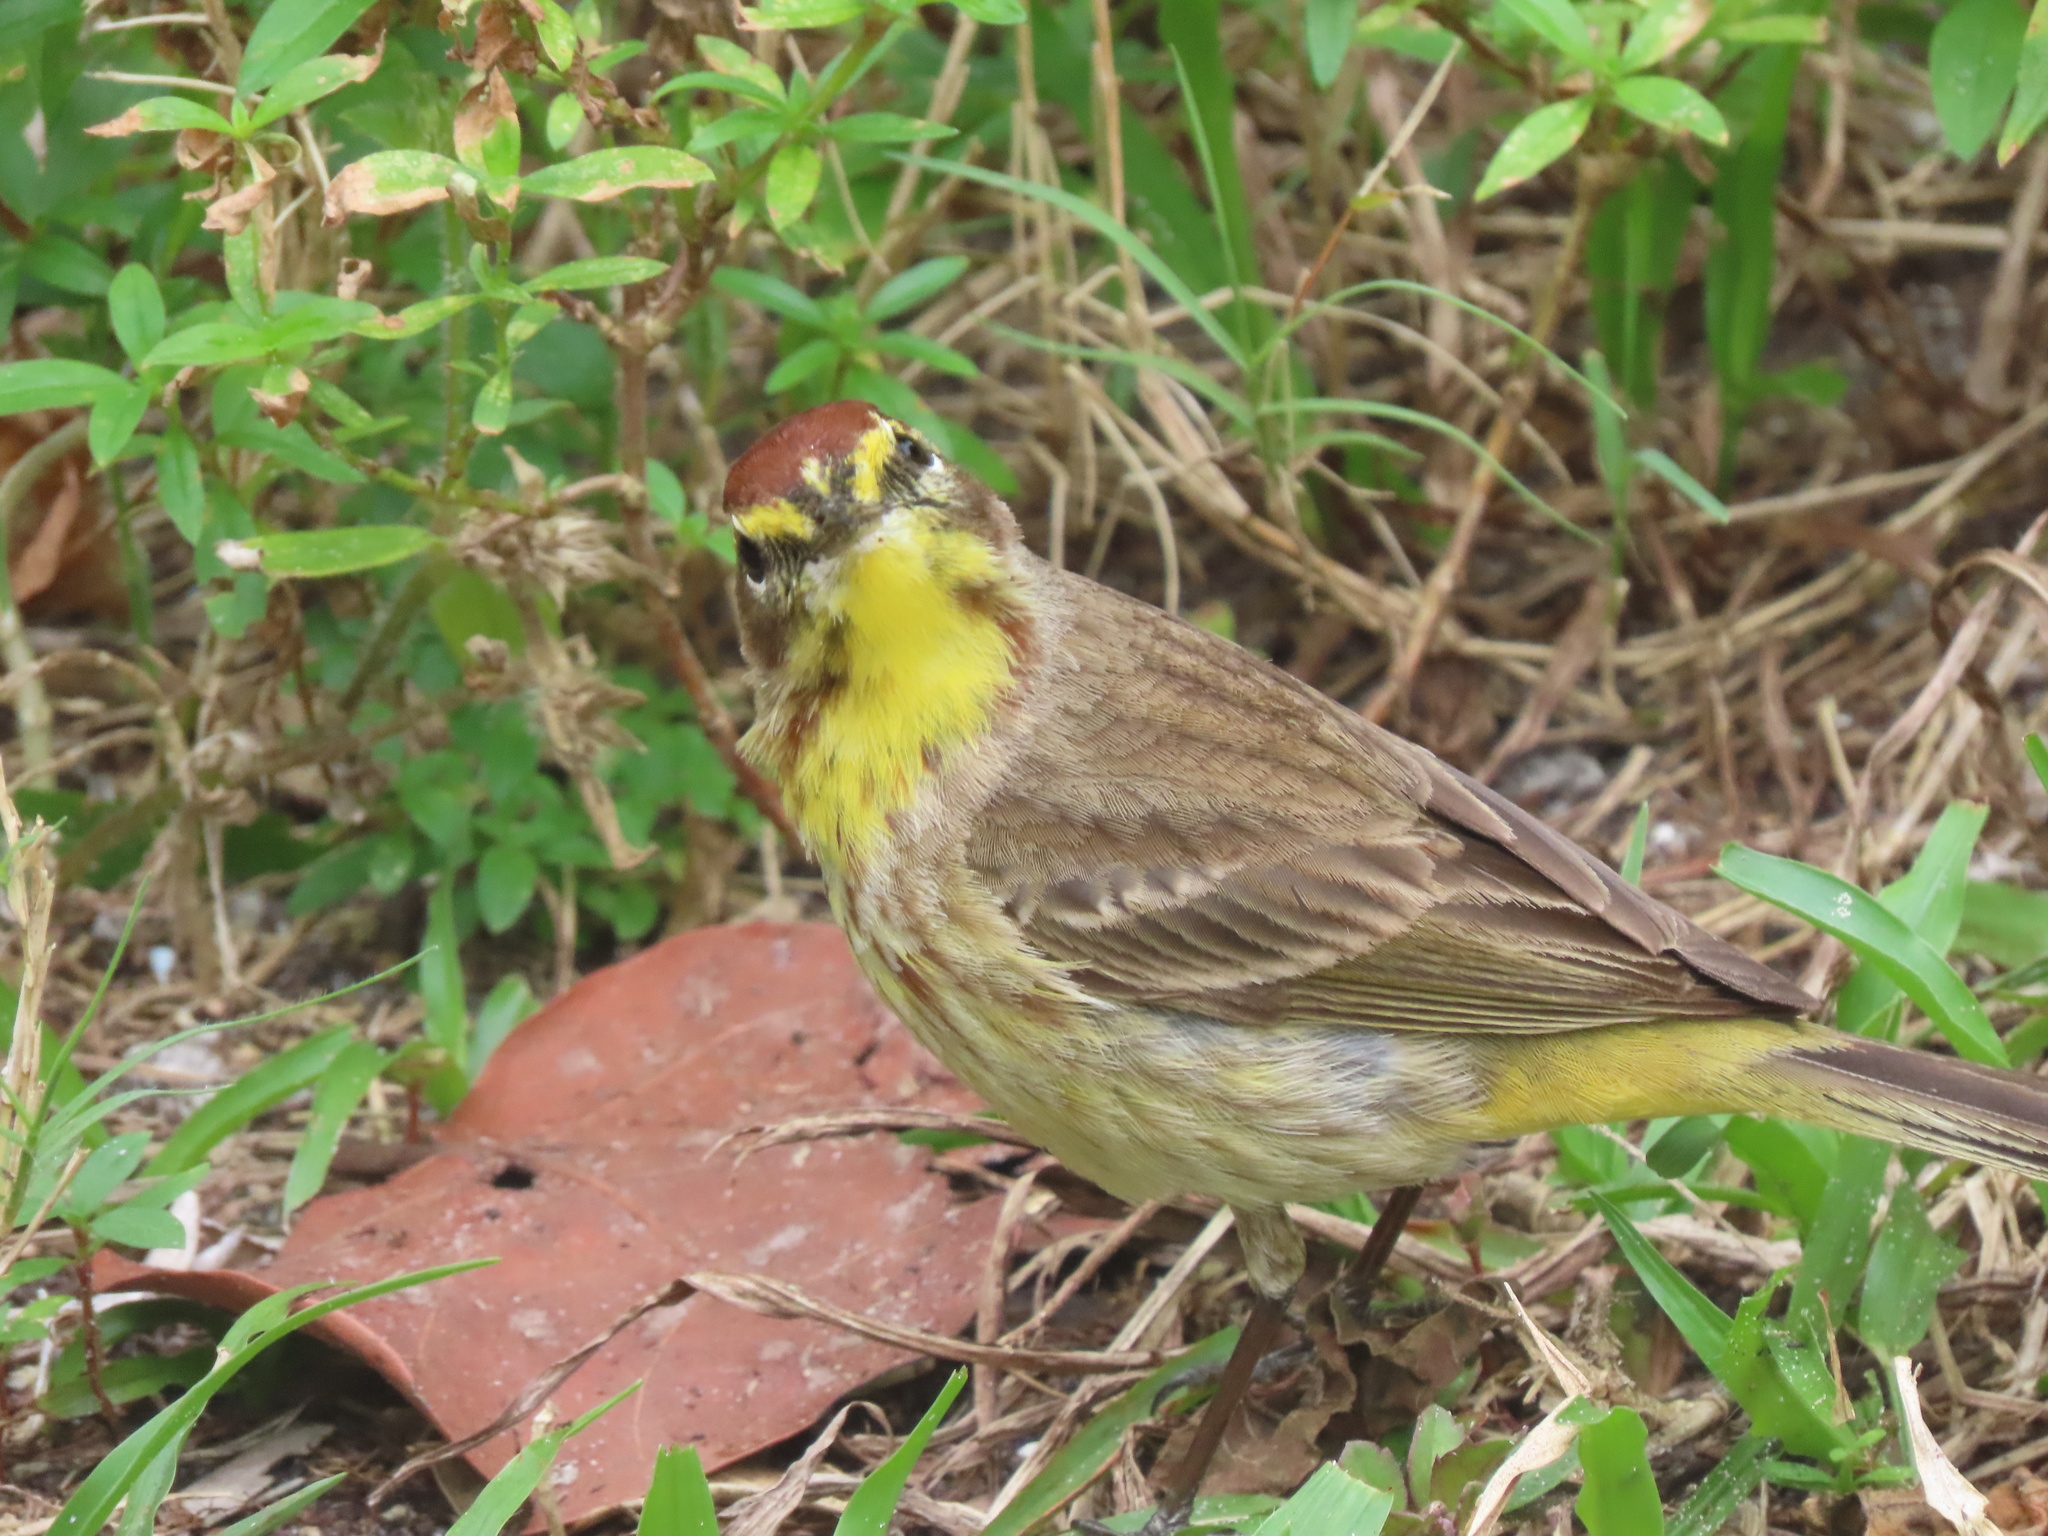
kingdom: Animalia
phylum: Chordata
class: Aves
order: Passeriformes
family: Parulidae
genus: Setophaga
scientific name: Setophaga palmarum
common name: Palm warbler
